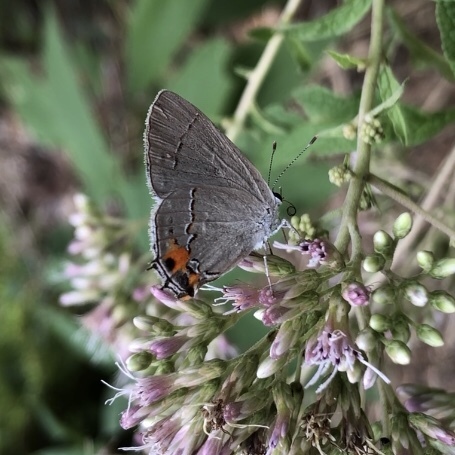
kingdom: Animalia
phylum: Arthropoda
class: Insecta
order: Lepidoptera
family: Lycaenidae
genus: Strymon
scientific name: Strymon melinus
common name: Gray hairstreak
